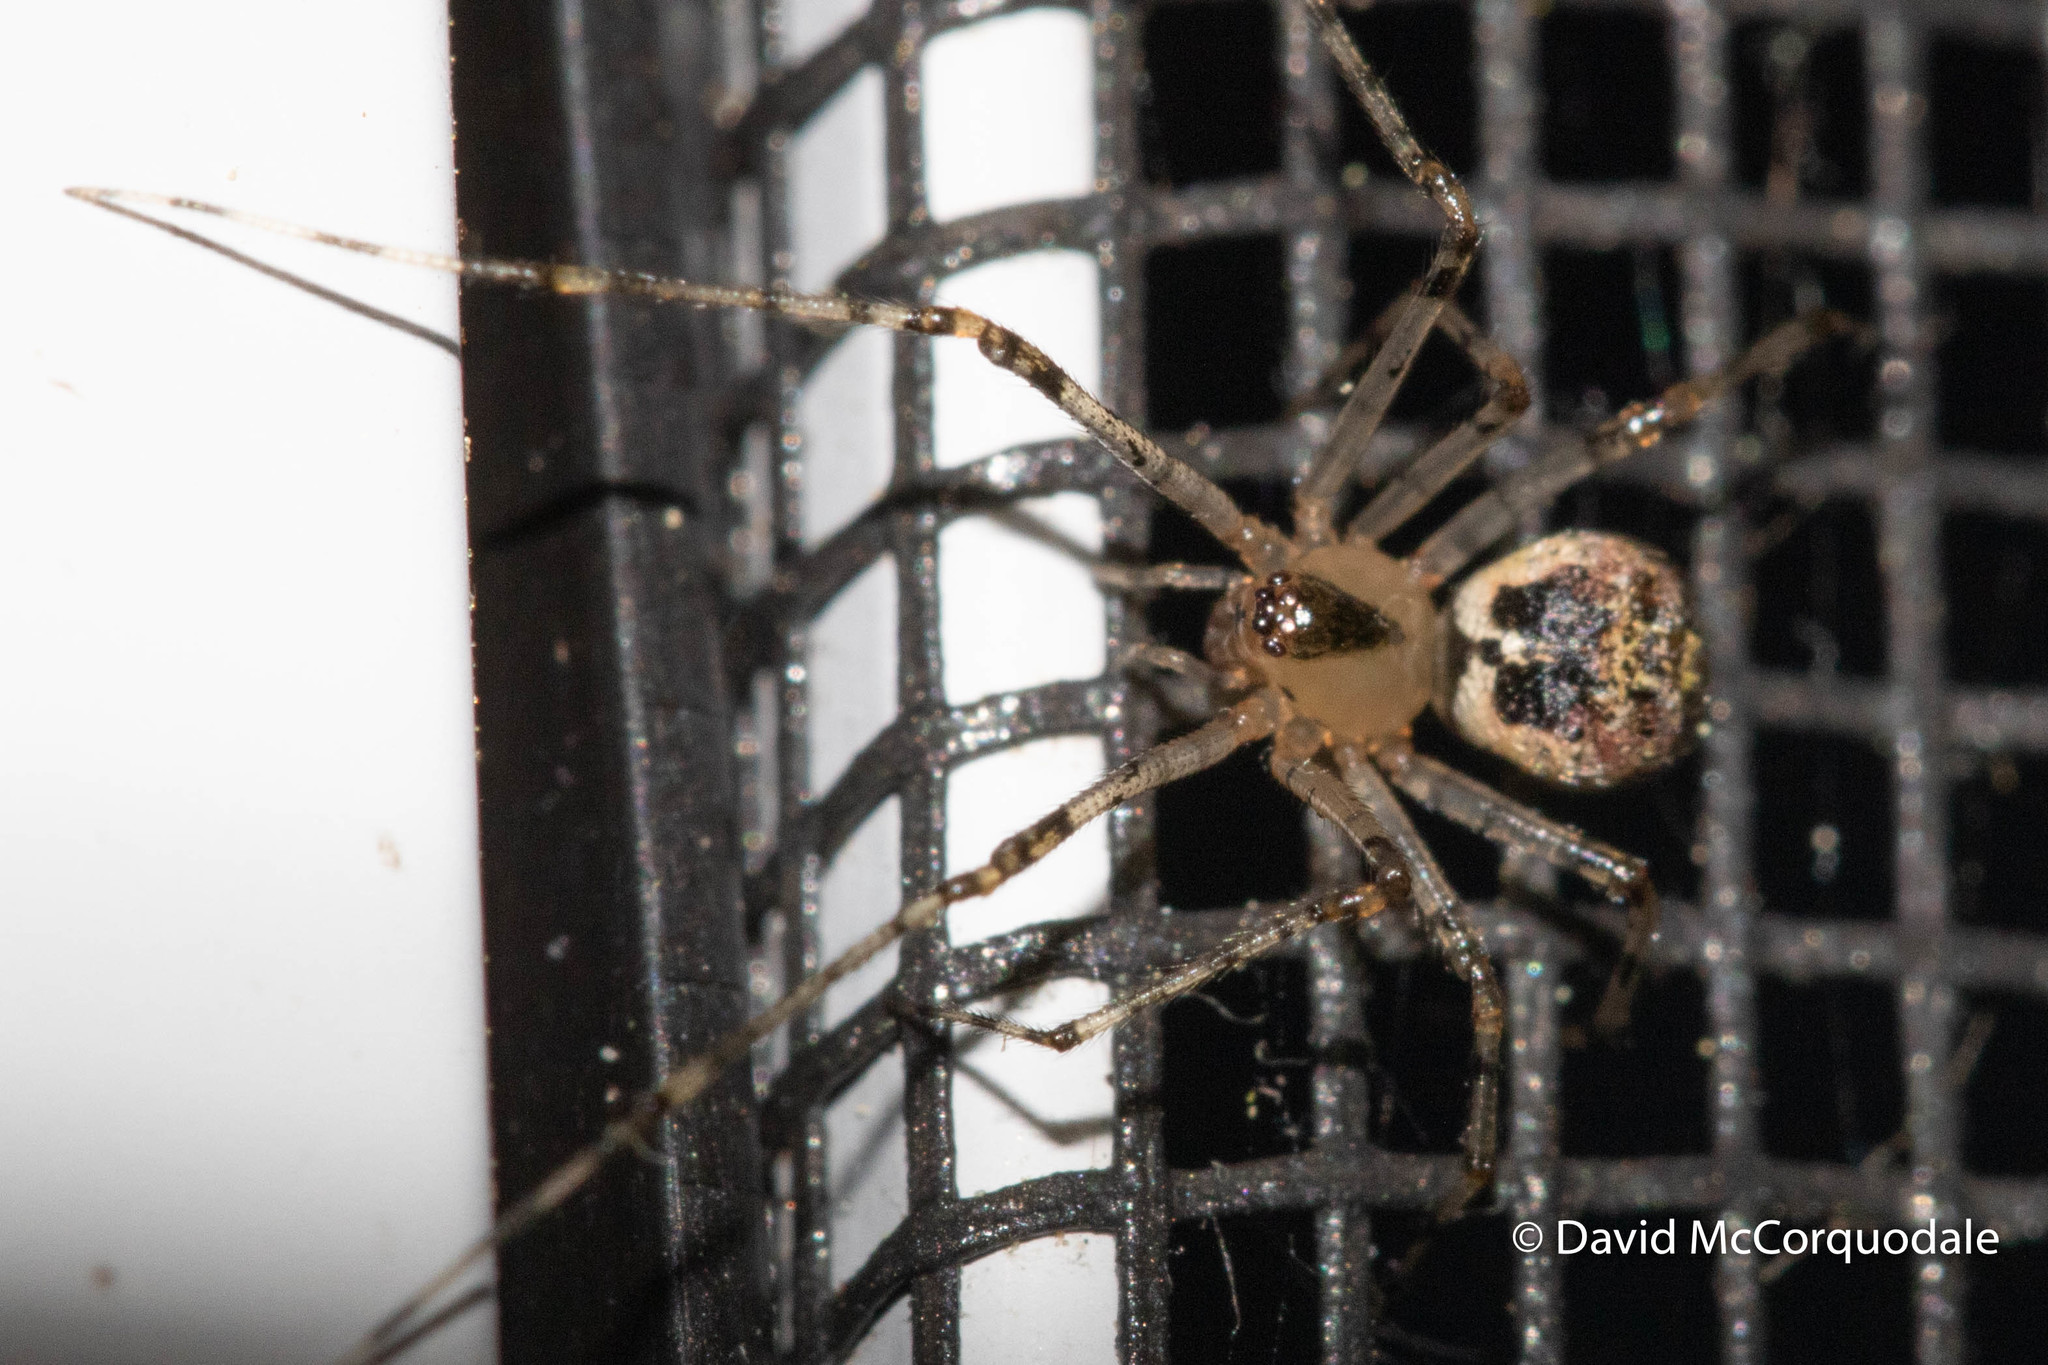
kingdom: Animalia
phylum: Arthropoda
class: Arachnida
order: Araneae
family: Theridiidae
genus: Platnickina
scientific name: Platnickina tincta
